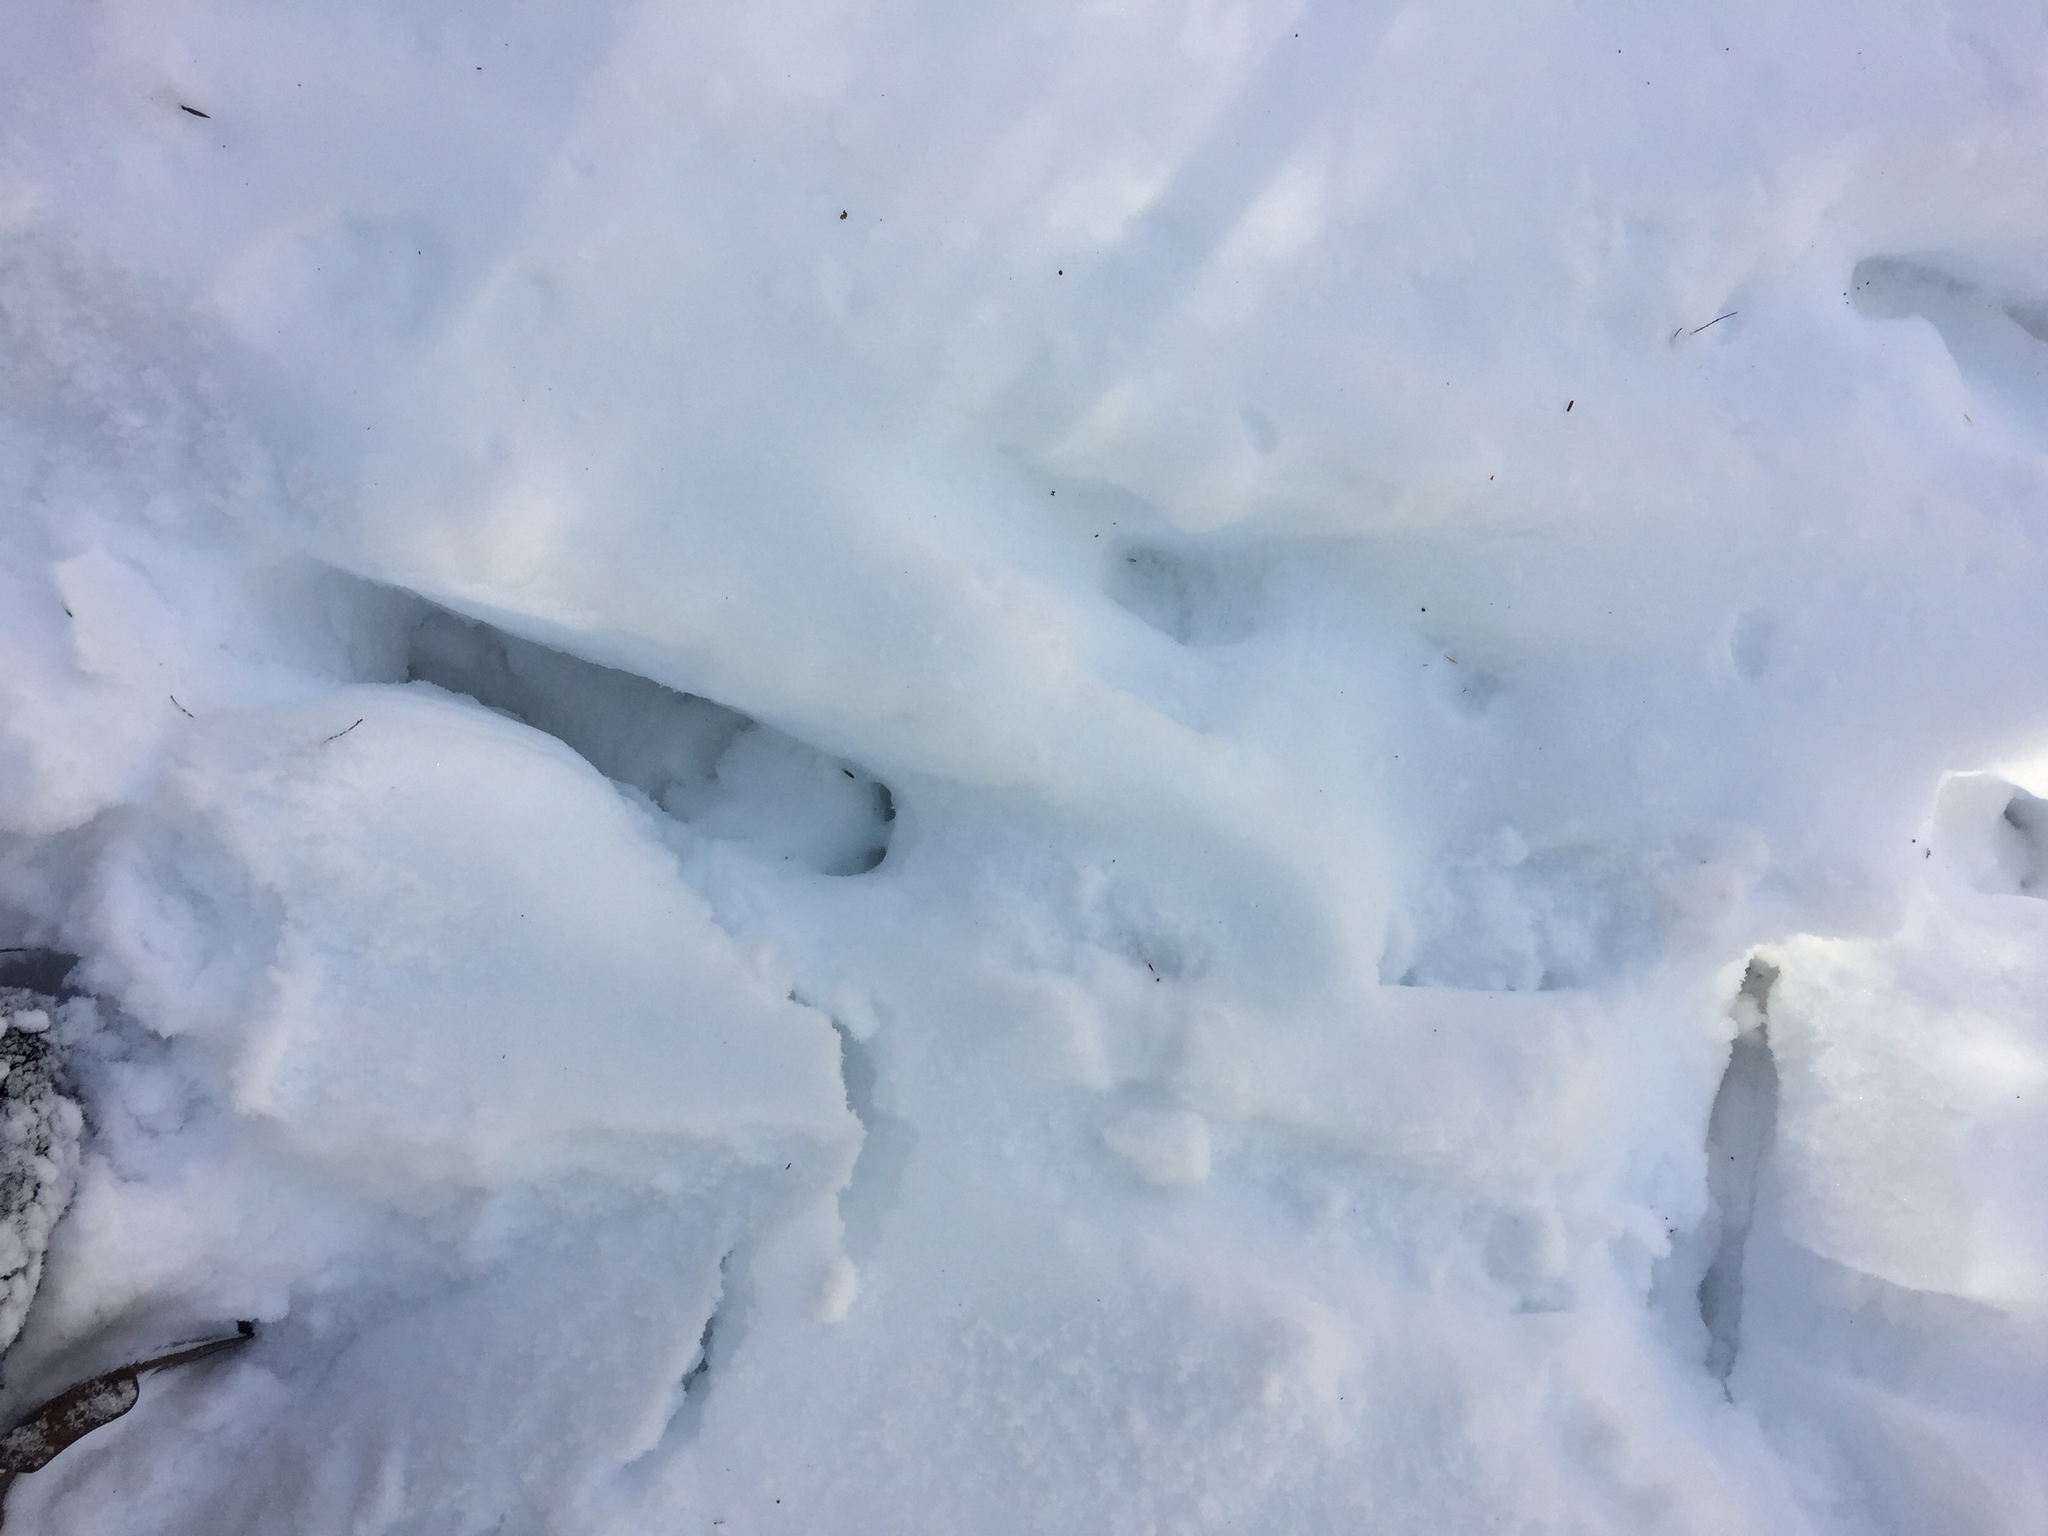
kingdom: Animalia
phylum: Chordata
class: Mammalia
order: Artiodactyla
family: Cervidae
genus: Odocoileus
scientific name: Odocoileus virginianus
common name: White-tailed deer
